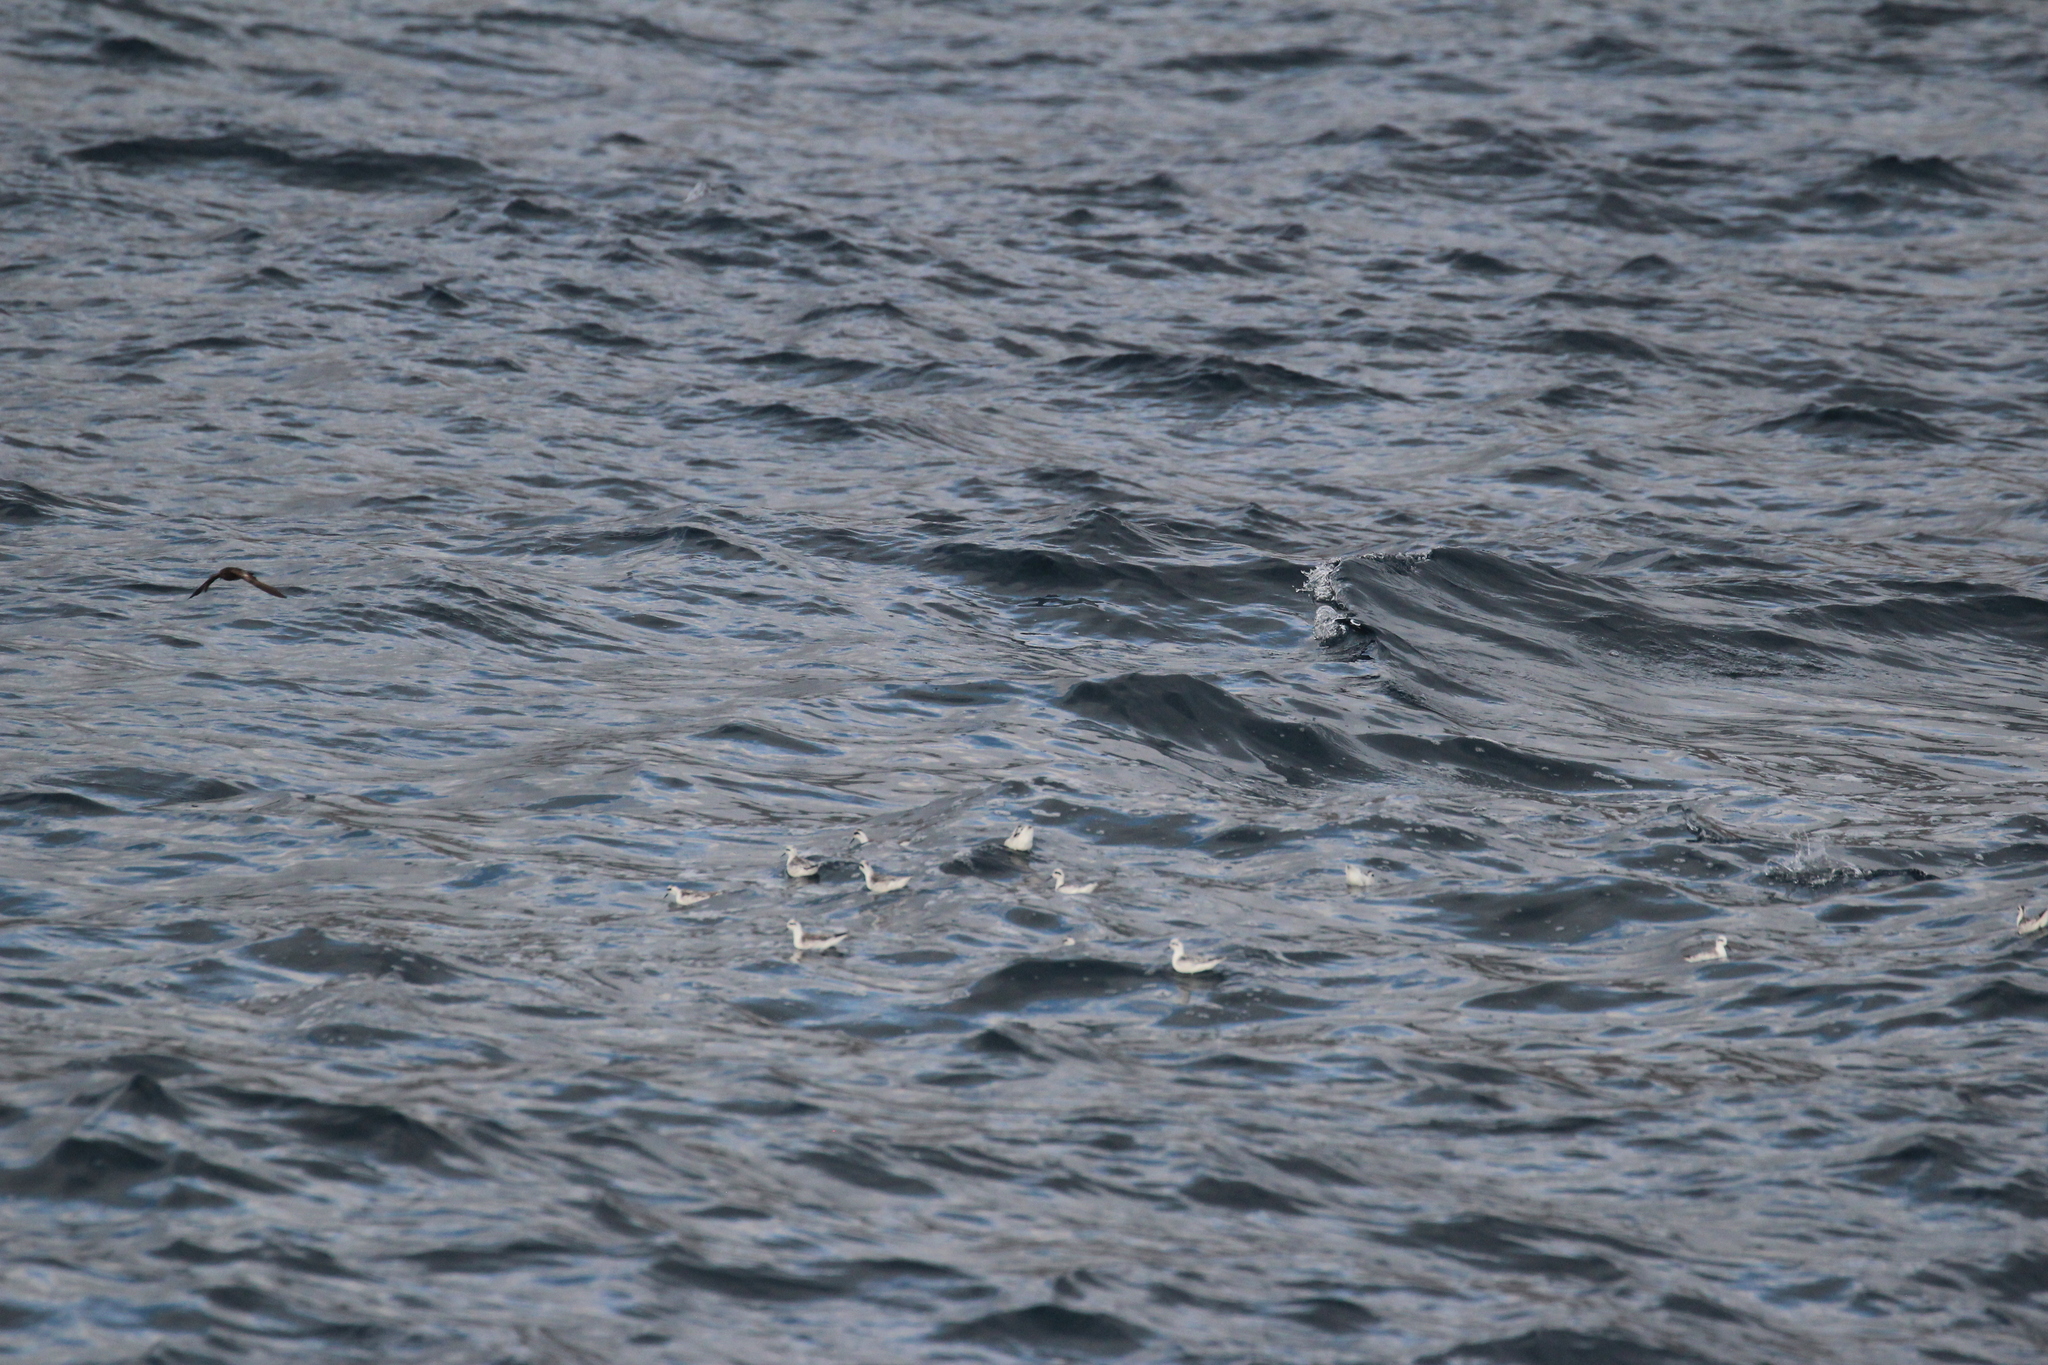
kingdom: Animalia
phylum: Chordata
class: Aves
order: Charadriiformes
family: Scolopacidae
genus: Phalaropus
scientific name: Phalaropus lobatus
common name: Red-necked phalarope
